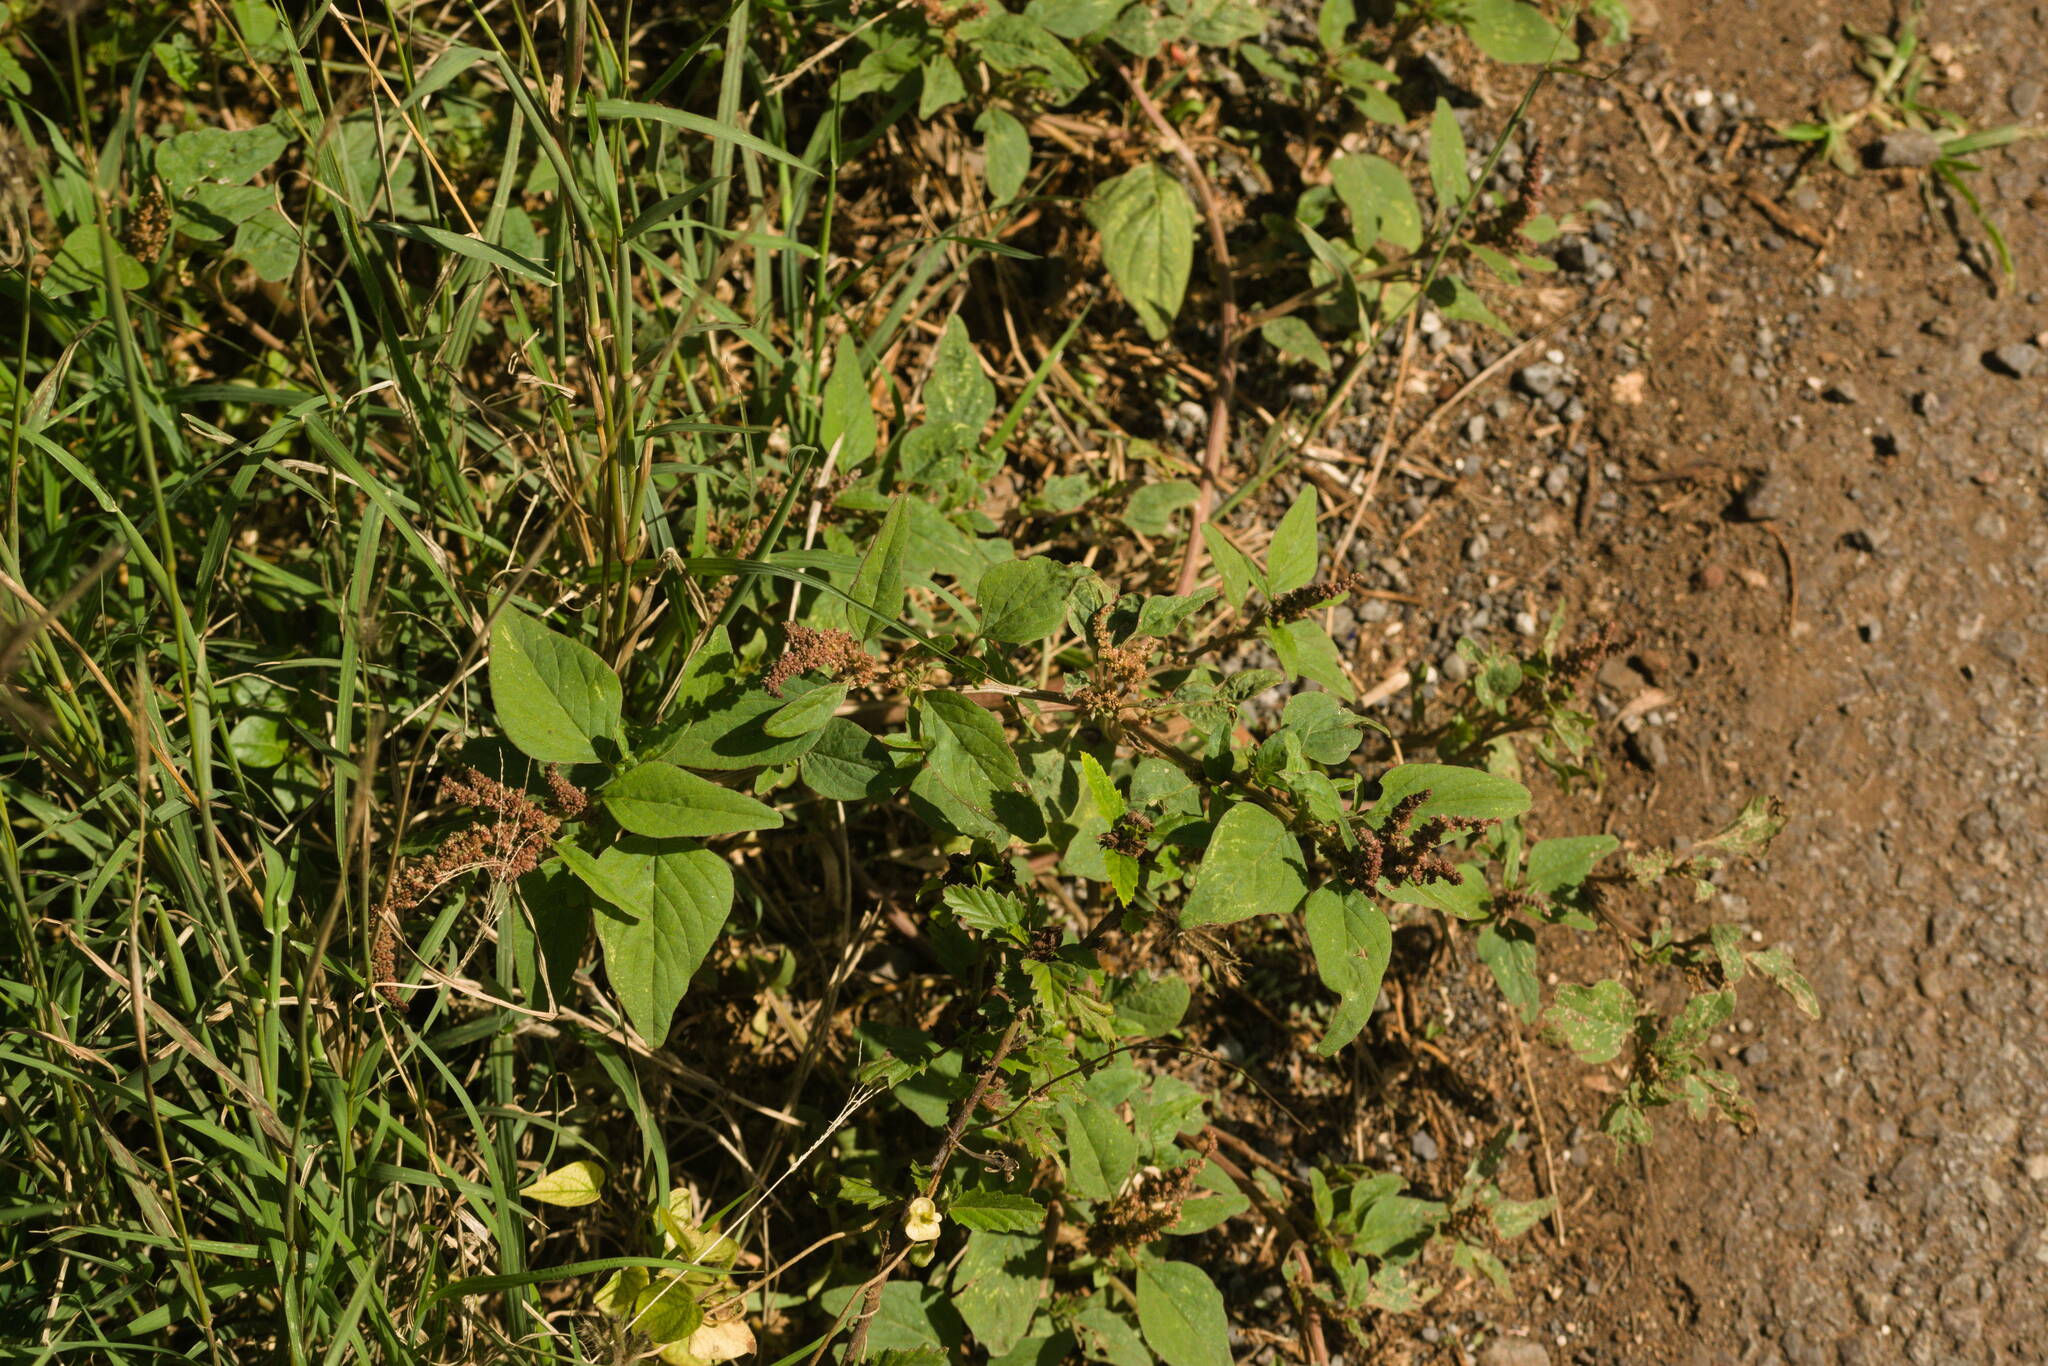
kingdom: Plantae
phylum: Tracheophyta
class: Magnoliopsida
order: Caryophyllales
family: Amaranthaceae
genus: Amaranthus
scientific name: Amaranthus viridis
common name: Slender amaranth
